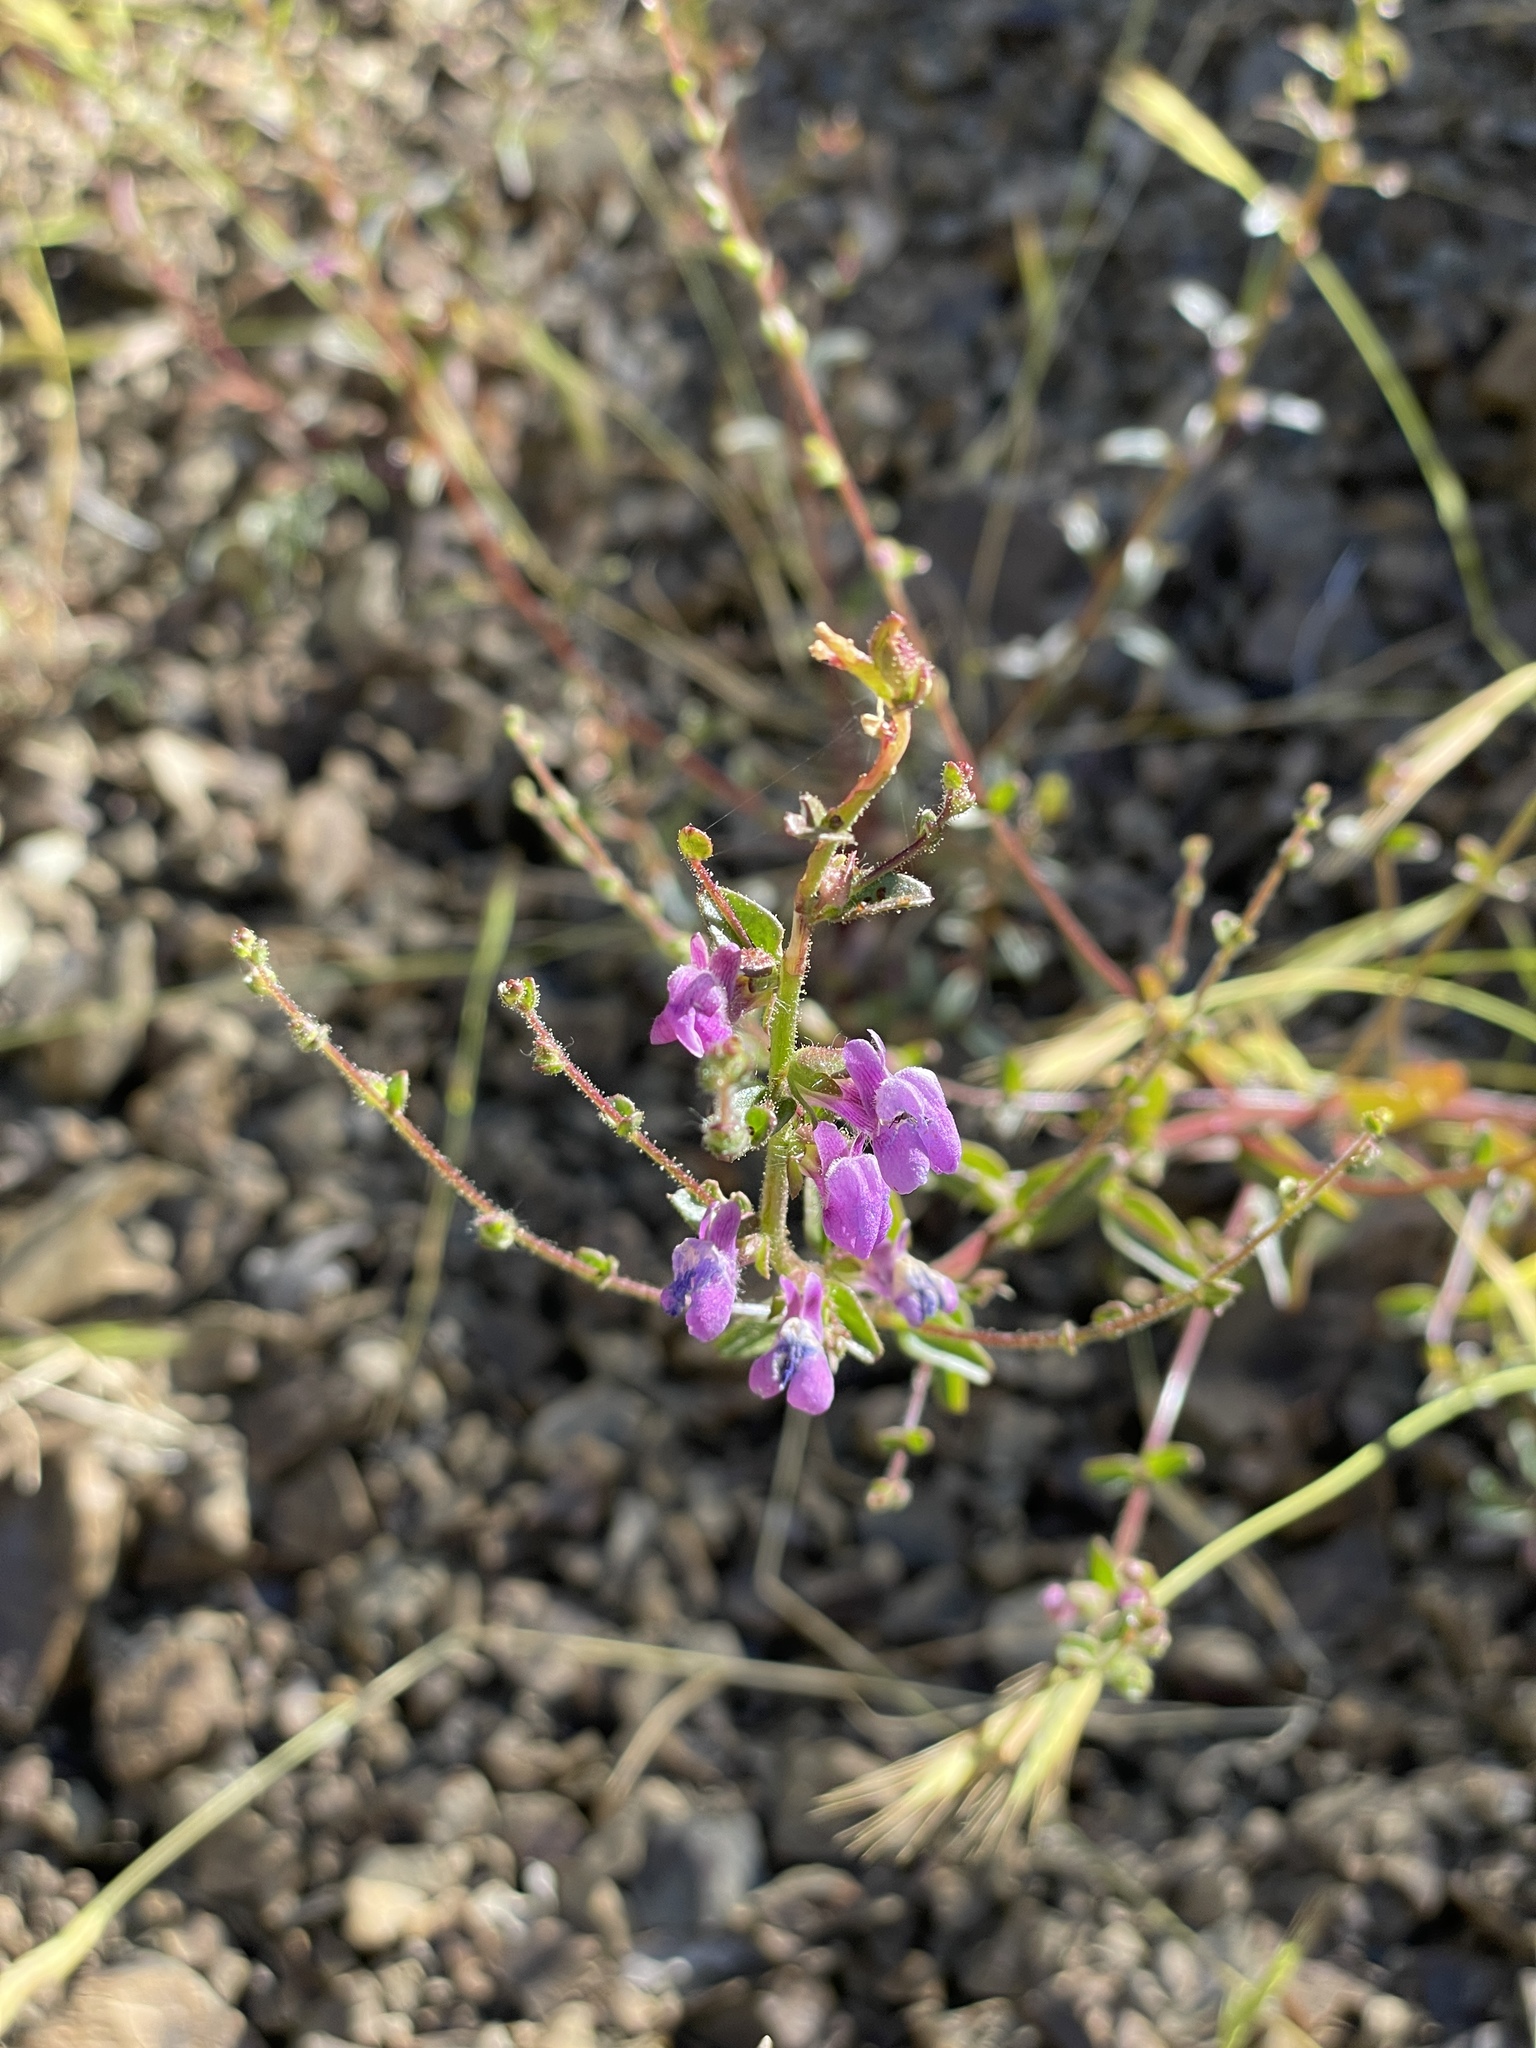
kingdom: Plantae
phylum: Tracheophyta
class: Magnoliopsida
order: Lamiales
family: Plantaginaceae
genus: Sairocarpus
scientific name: Sairocarpus vexillocalyculatus
